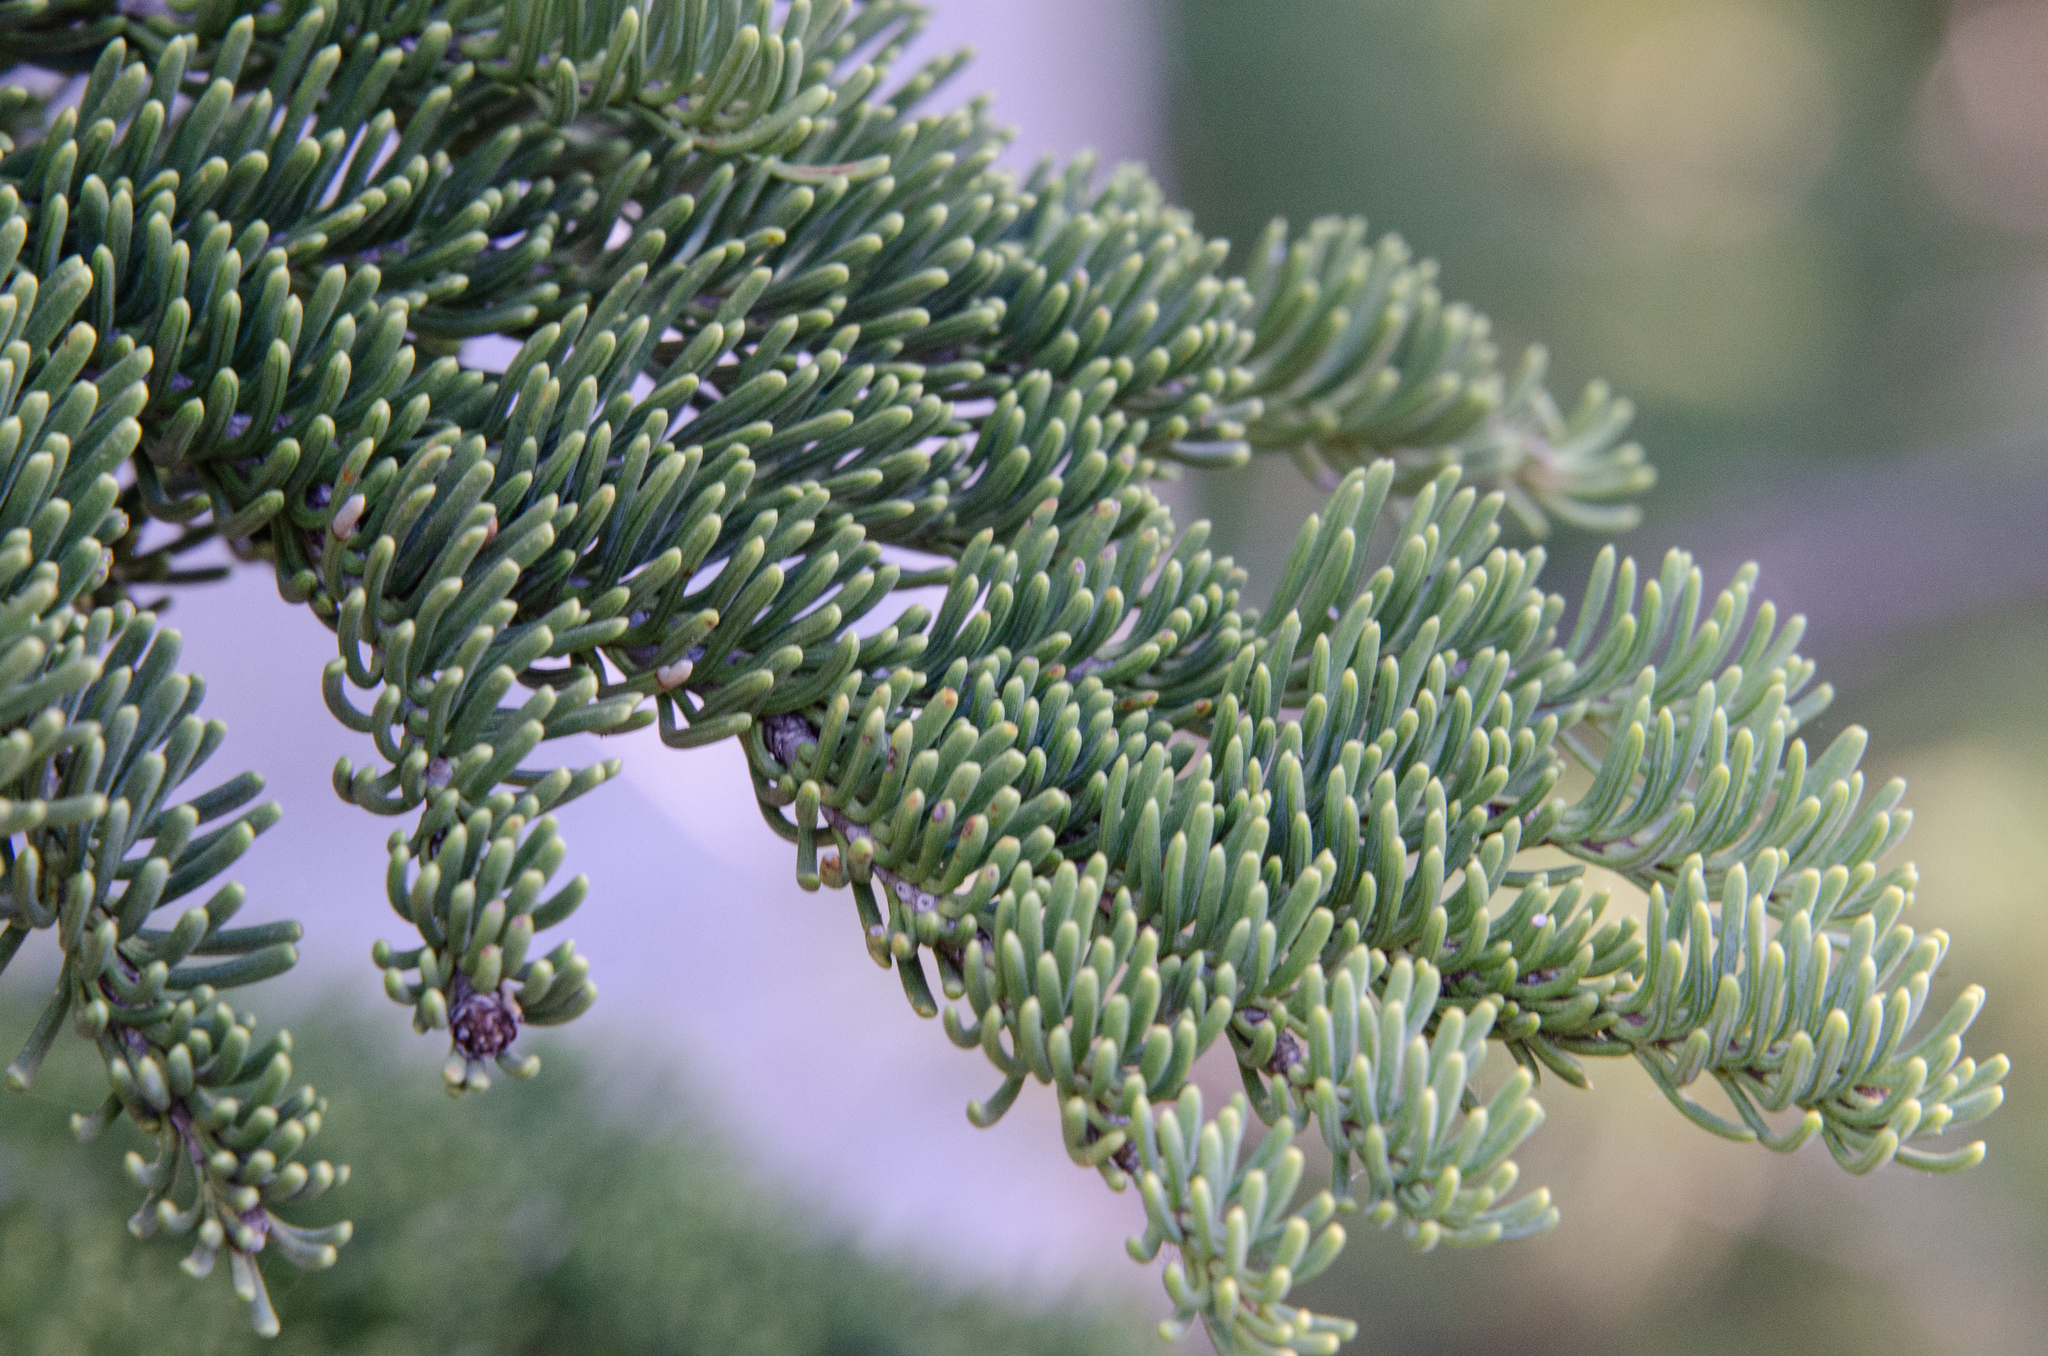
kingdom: Plantae
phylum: Tracheophyta
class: Pinopsida
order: Pinales
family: Pinaceae
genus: Abies
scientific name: Abies magnifica bis
